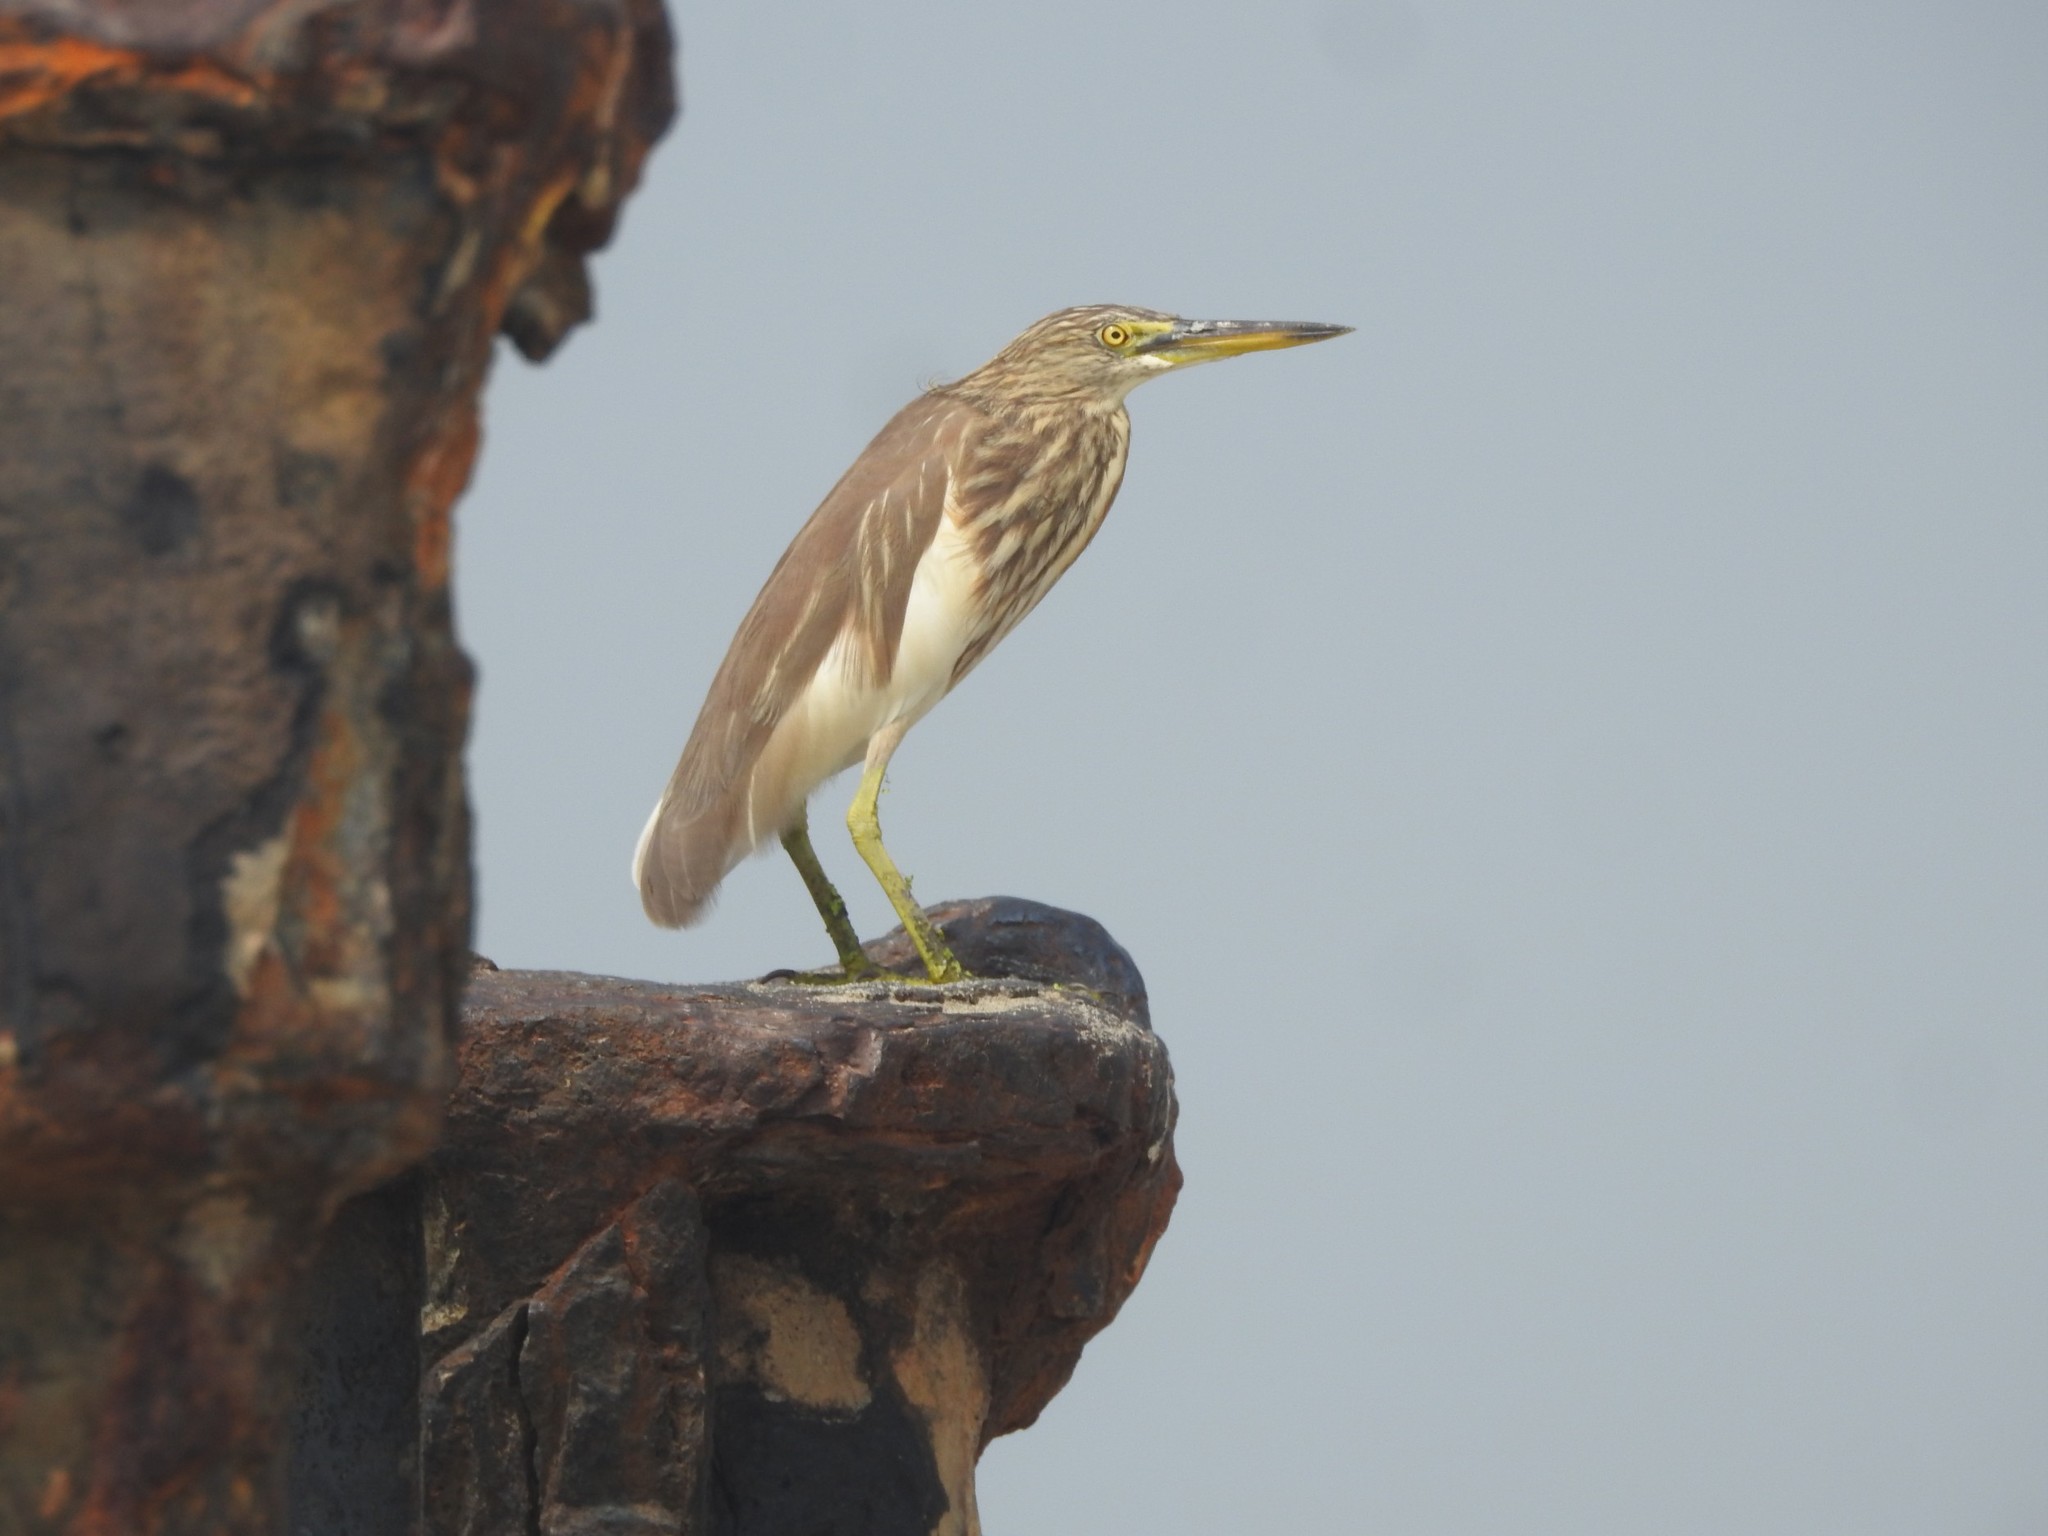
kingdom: Animalia
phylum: Chordata
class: Aves
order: Pelecaniformes
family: Ardeidae
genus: Ardeola
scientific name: Ardeola grayii
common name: Indian pond heron
